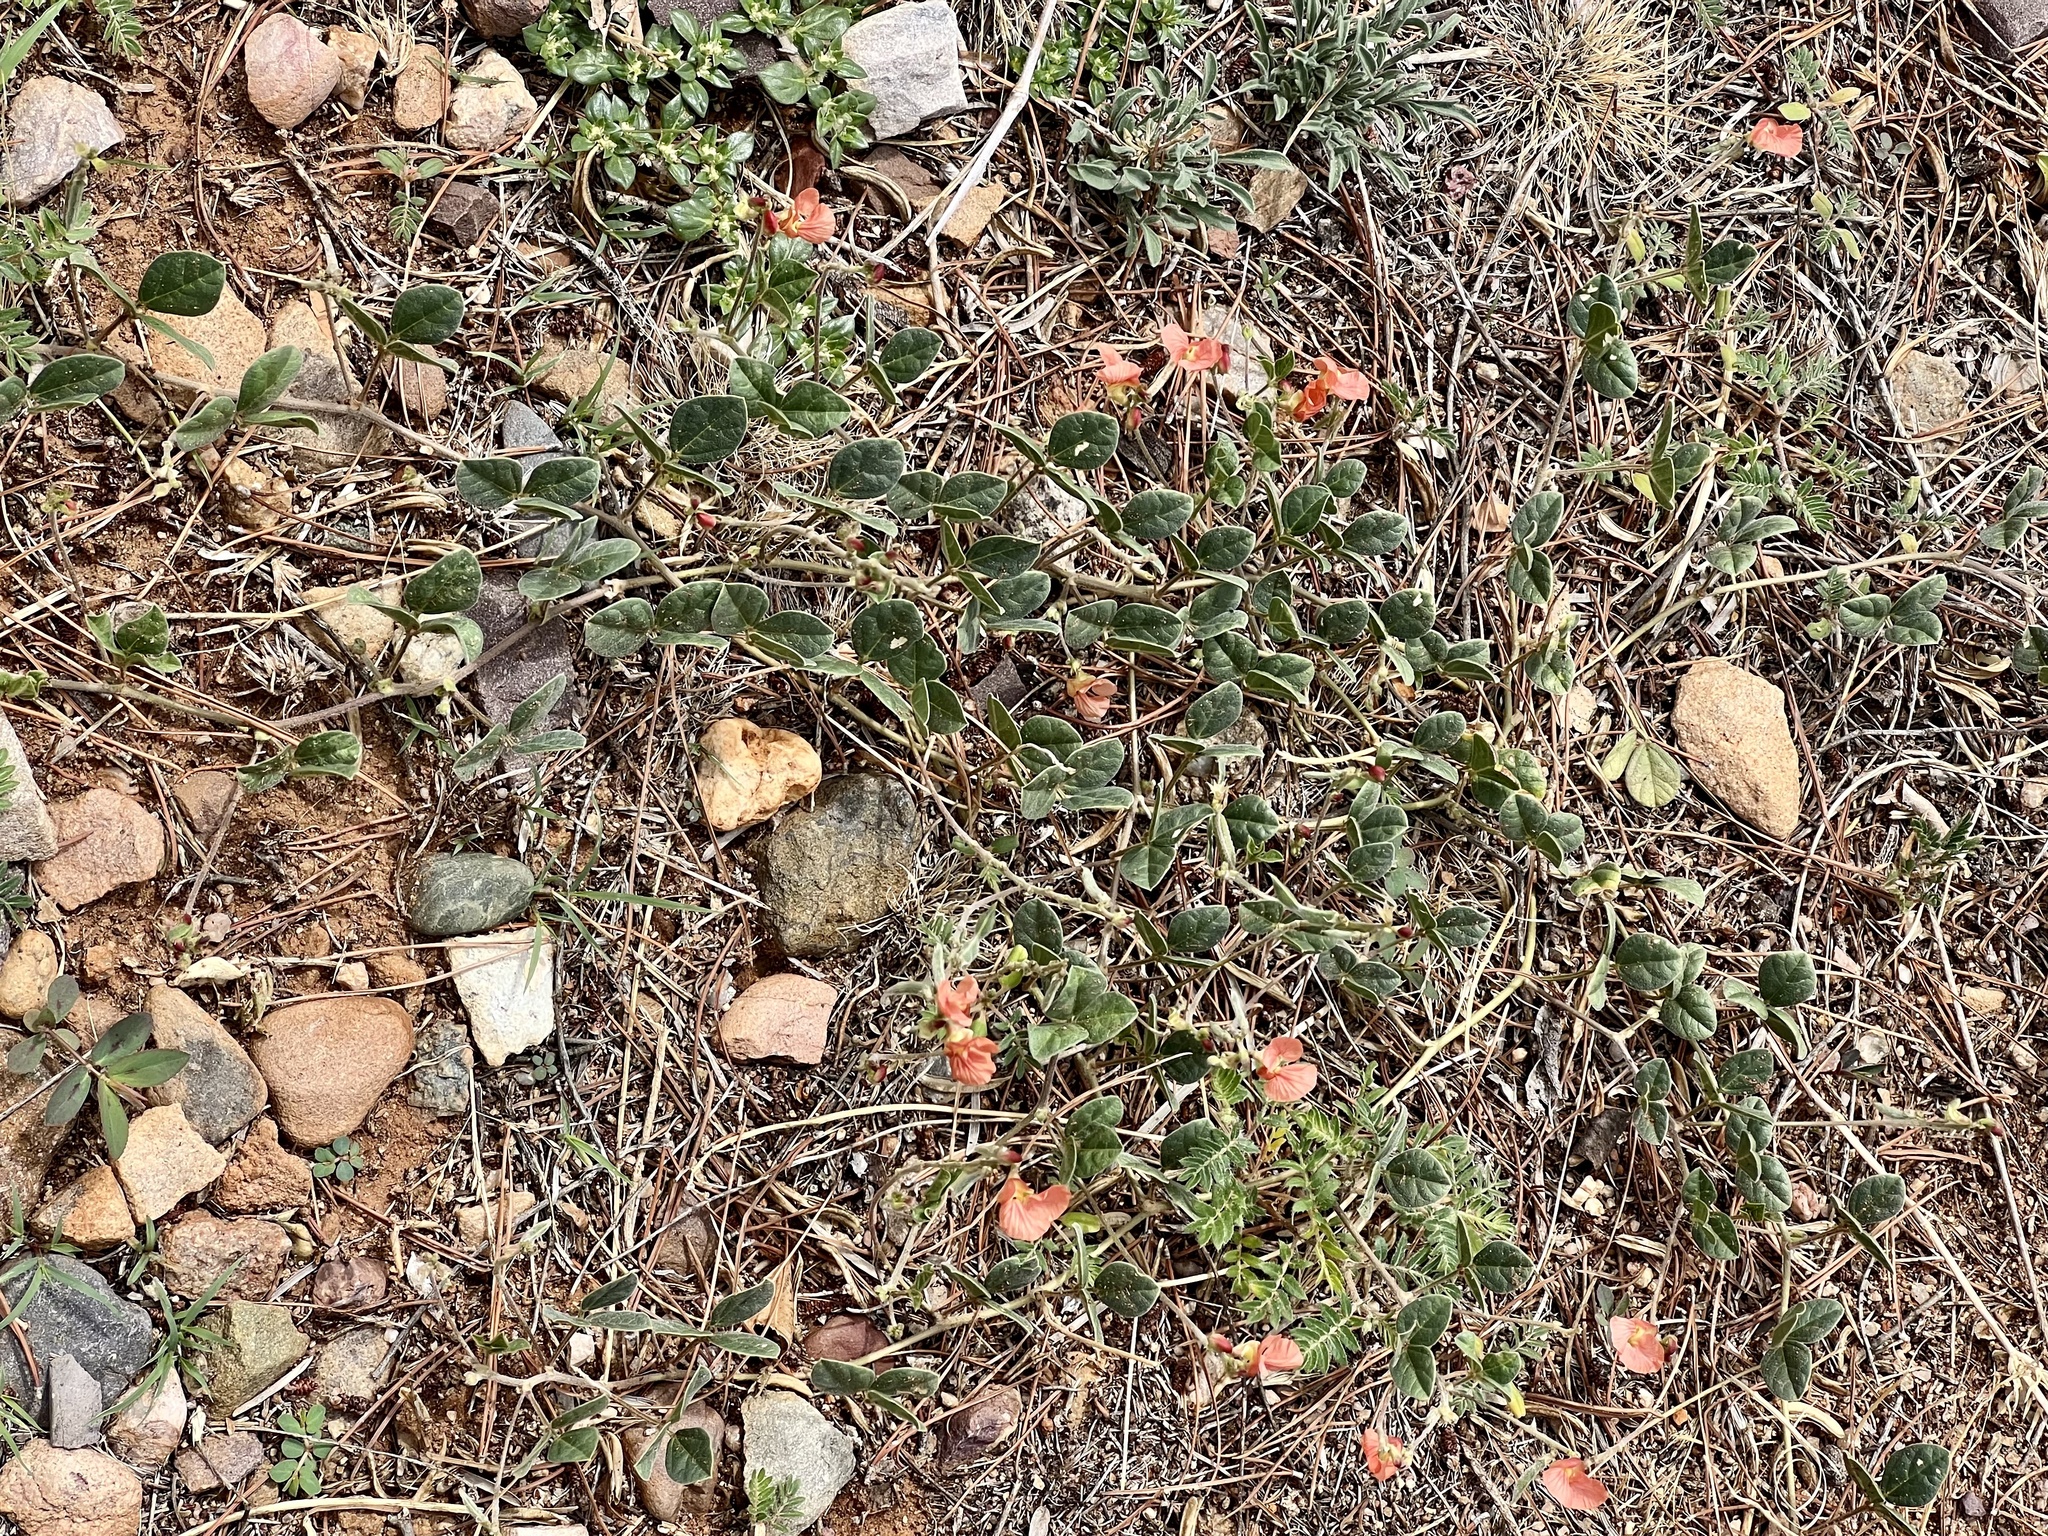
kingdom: Plantae
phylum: Tracheophyta
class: Magnoliopsida
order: Fabales
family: Fabaceae
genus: Macroptilium
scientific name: Macroptilium gibbosifolium
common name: Variableleaf bushbean
